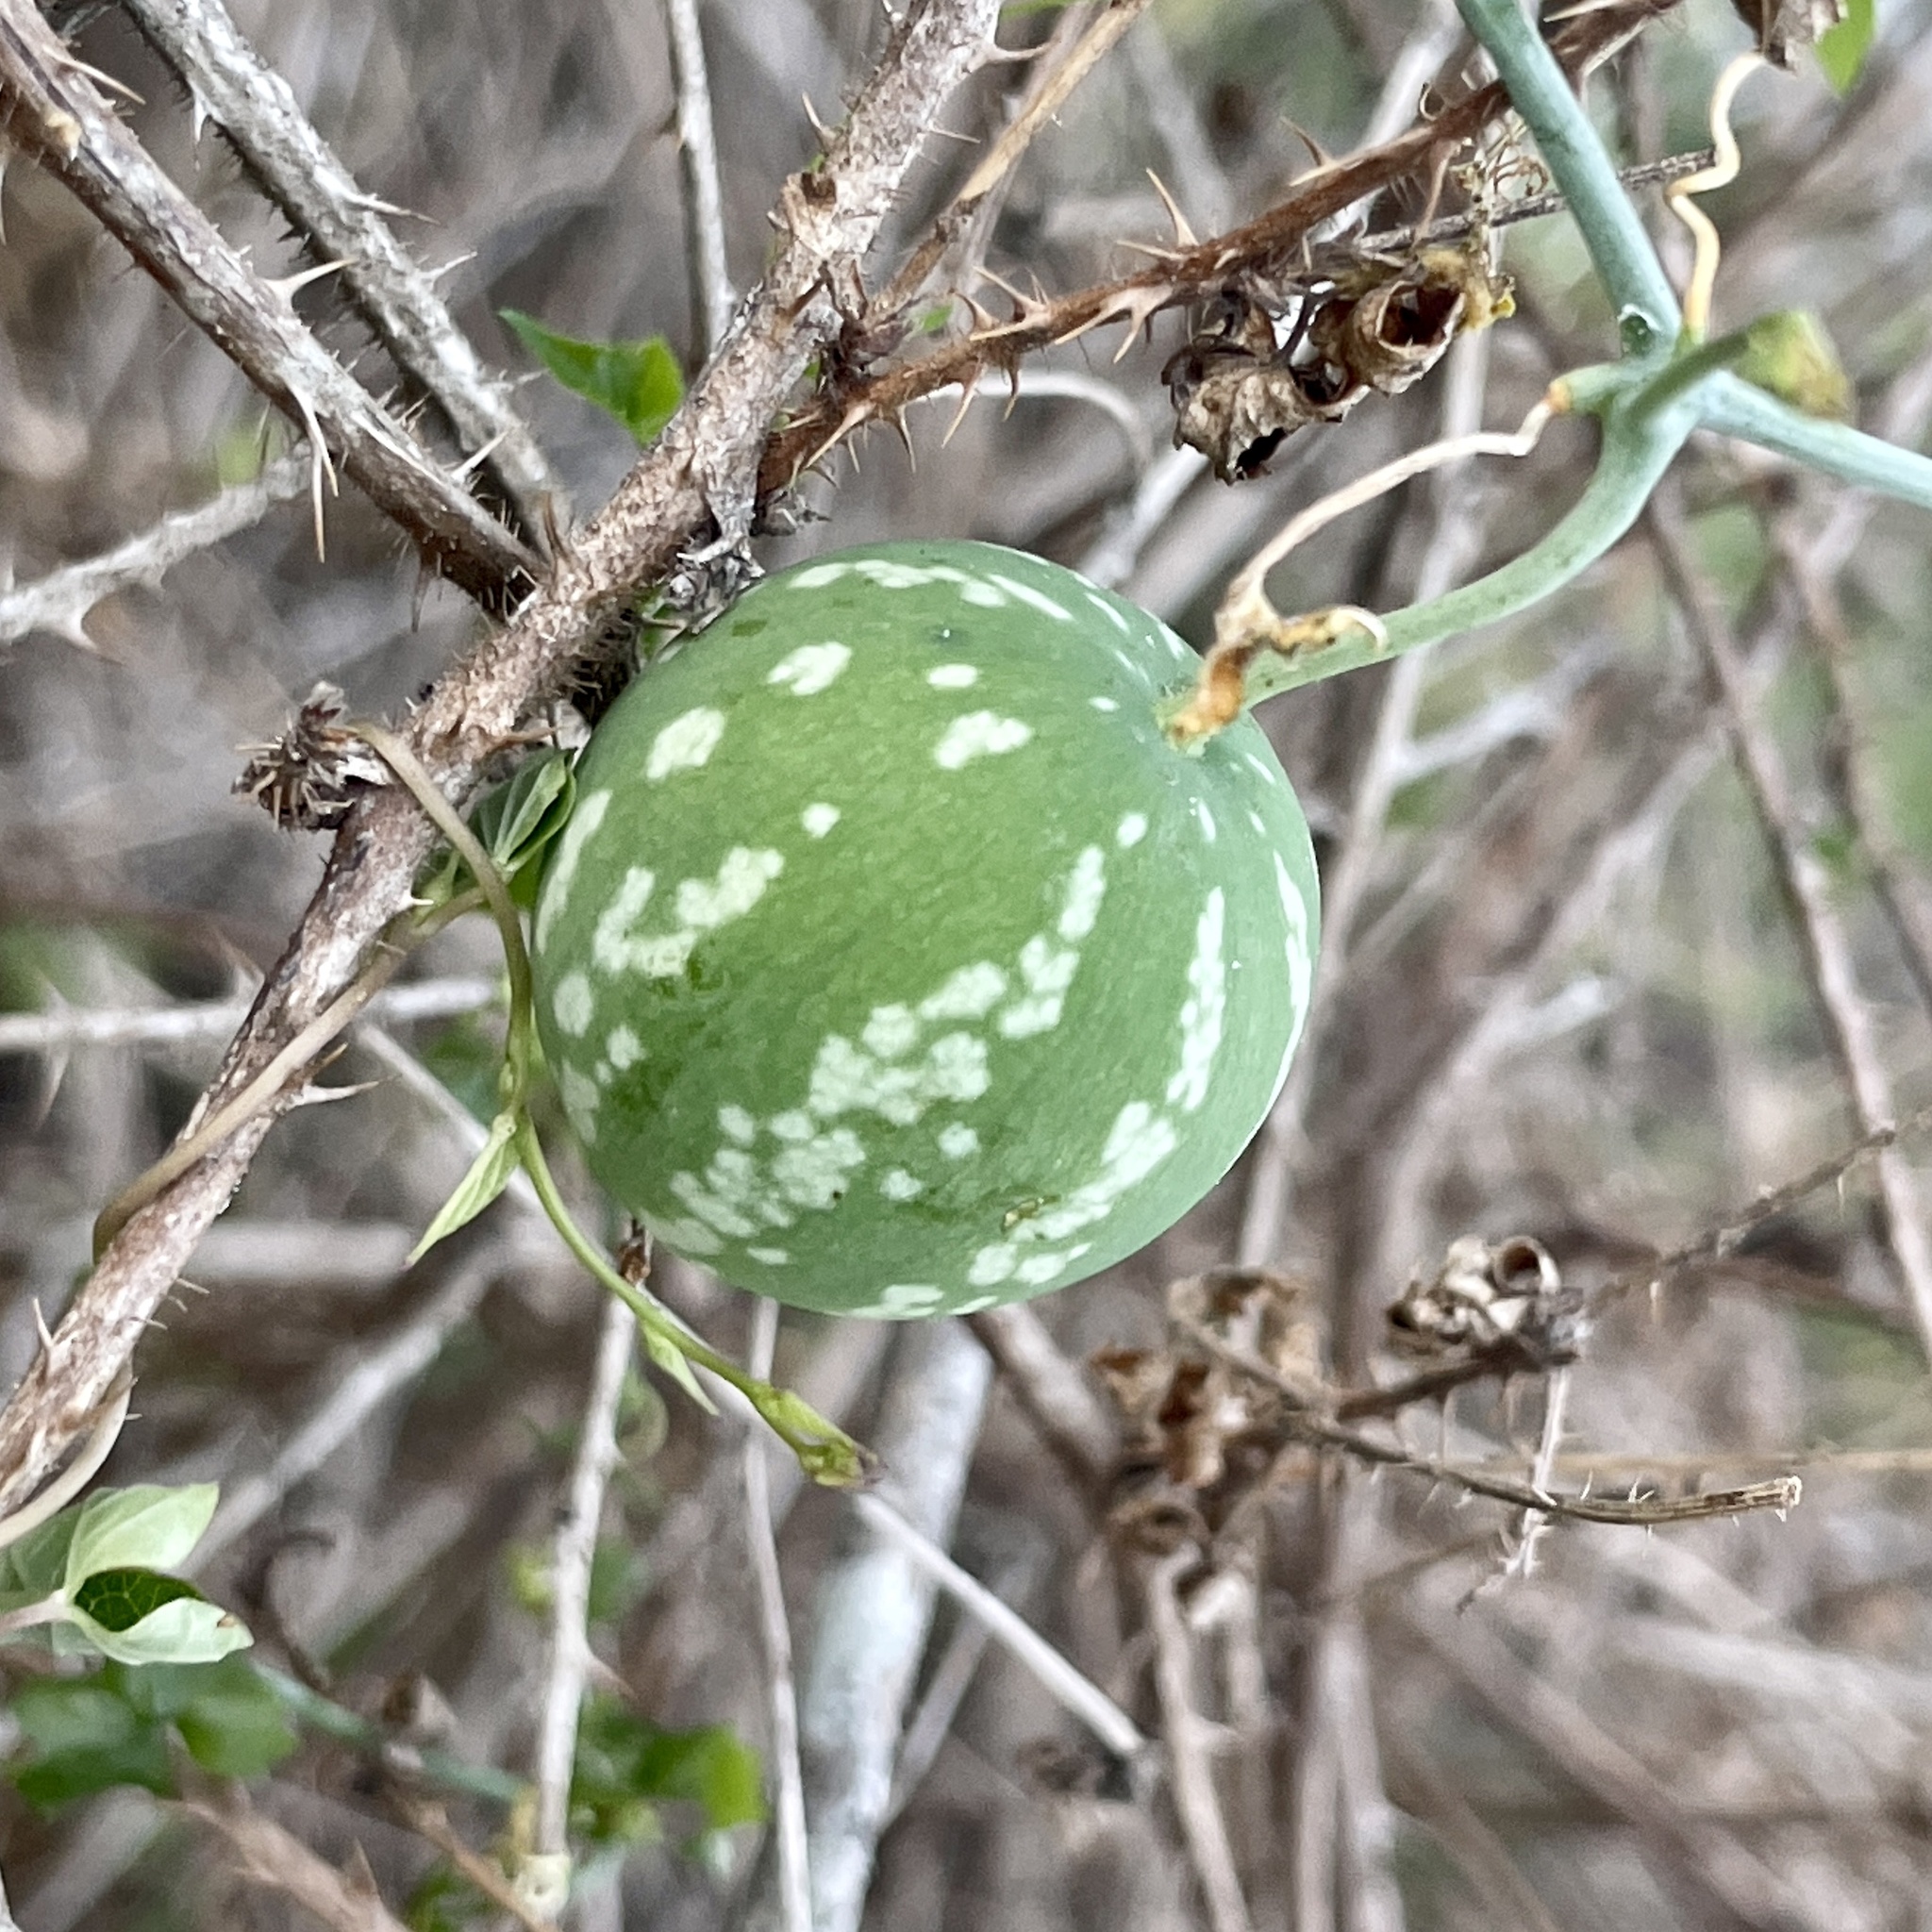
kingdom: Plantae
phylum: Tracheophyta
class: Magnoliopsida
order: Cucurbitales
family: Cucurbitaceae
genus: Ibervillea
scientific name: Ibervillea lindheimeri
